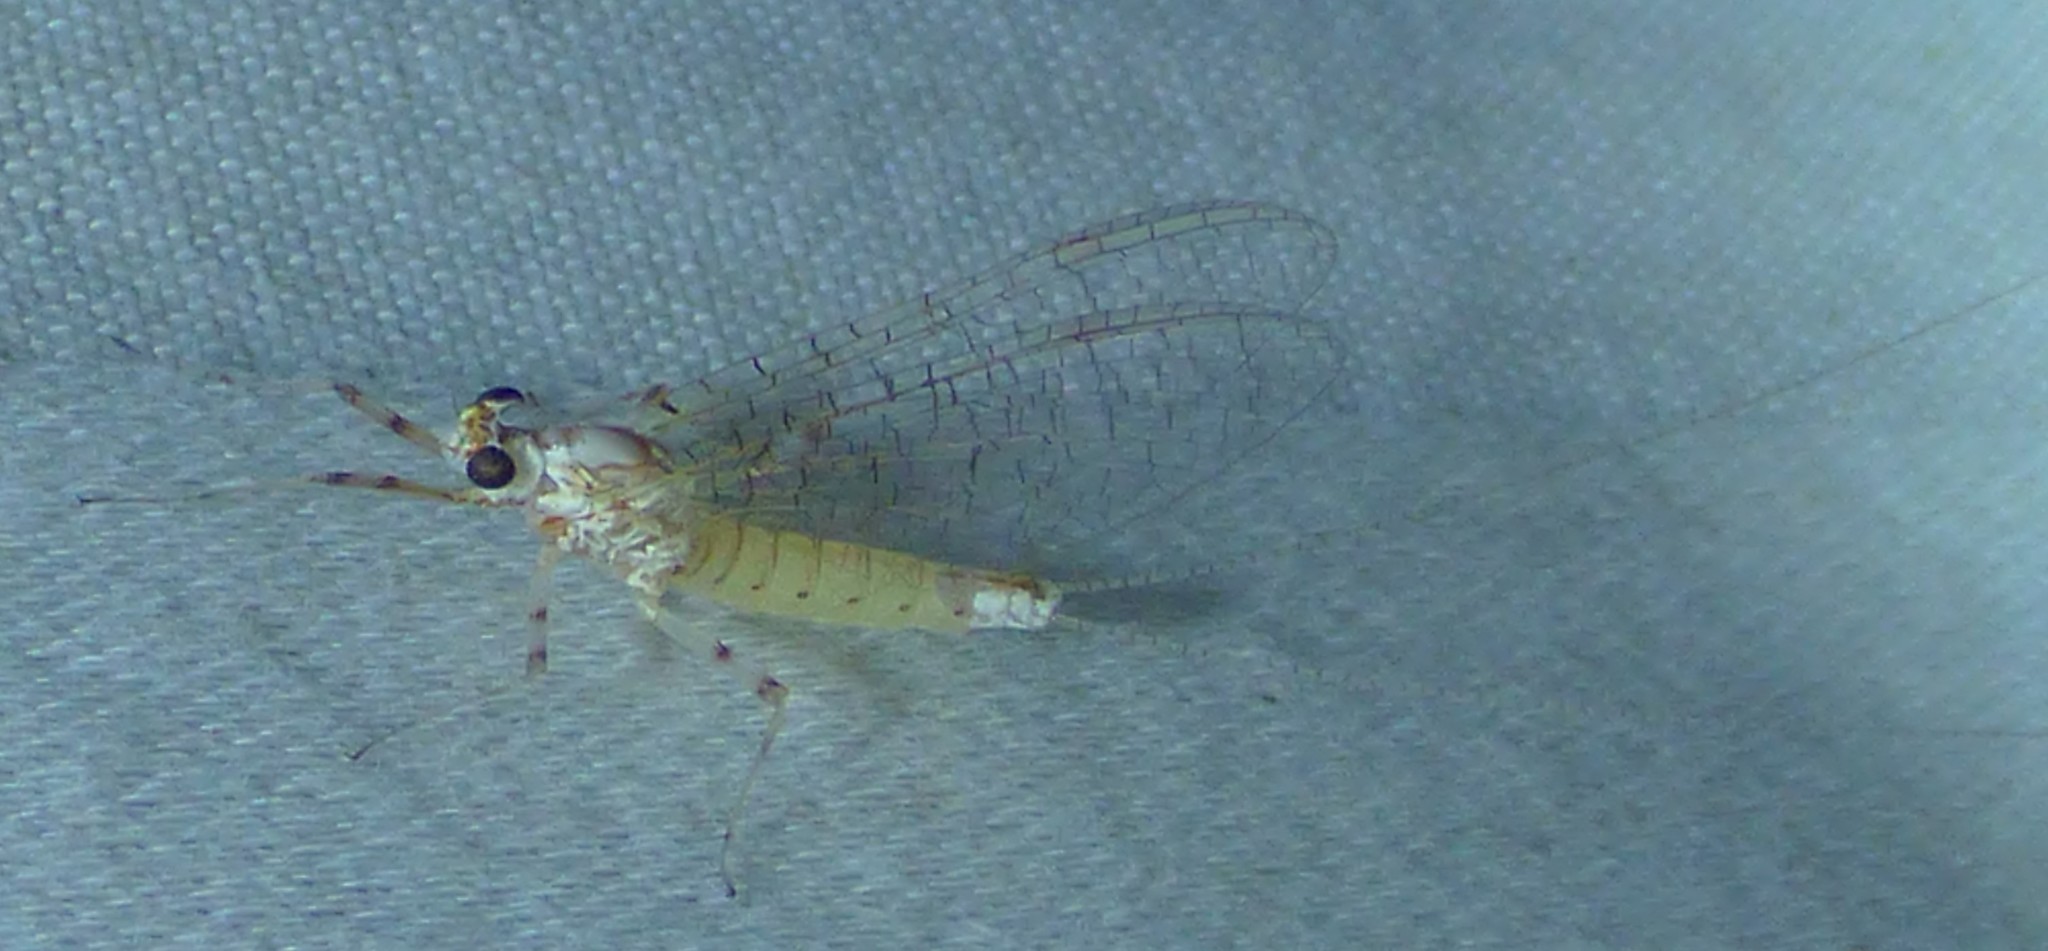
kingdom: Animalia
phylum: Arthropoda
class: Insecta
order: Ephemeroptera
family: Heptageniidae
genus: Maccaffertium
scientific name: Maccaffertium pulchellum
